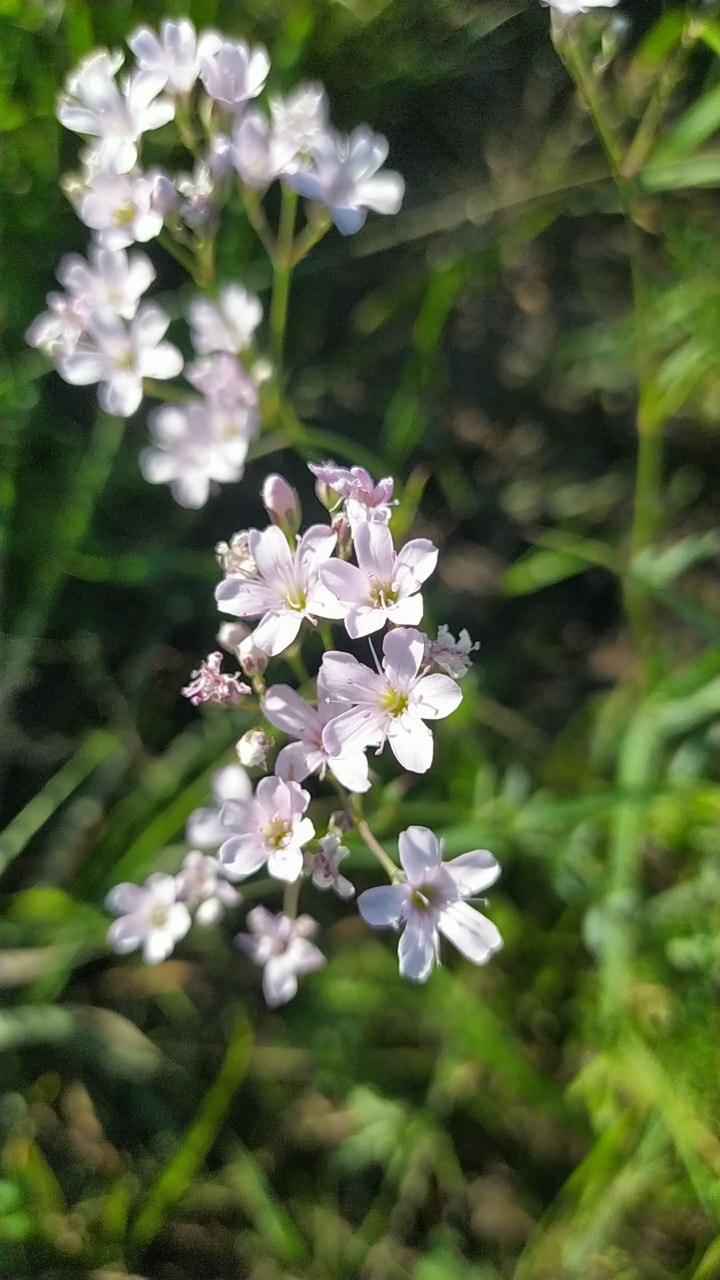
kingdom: Plantae
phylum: Tracheophyta
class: Magnoliopsida
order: Caryophyllales
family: Caryophyllaceae
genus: Gypsophila
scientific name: Gypsophila davurica
